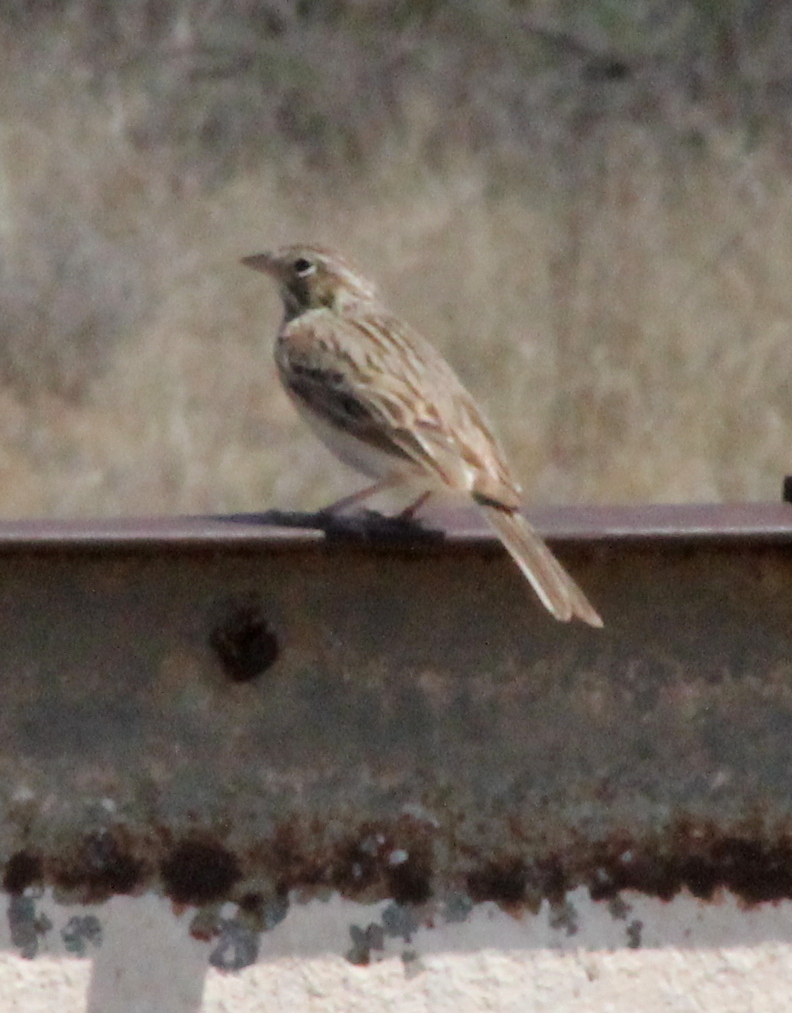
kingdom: Animalia
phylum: Chordata
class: Aves
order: Passeriformes
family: Passerellidae
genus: Pooecetes
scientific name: Pooecetes gramineus
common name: Vesper sparrow
